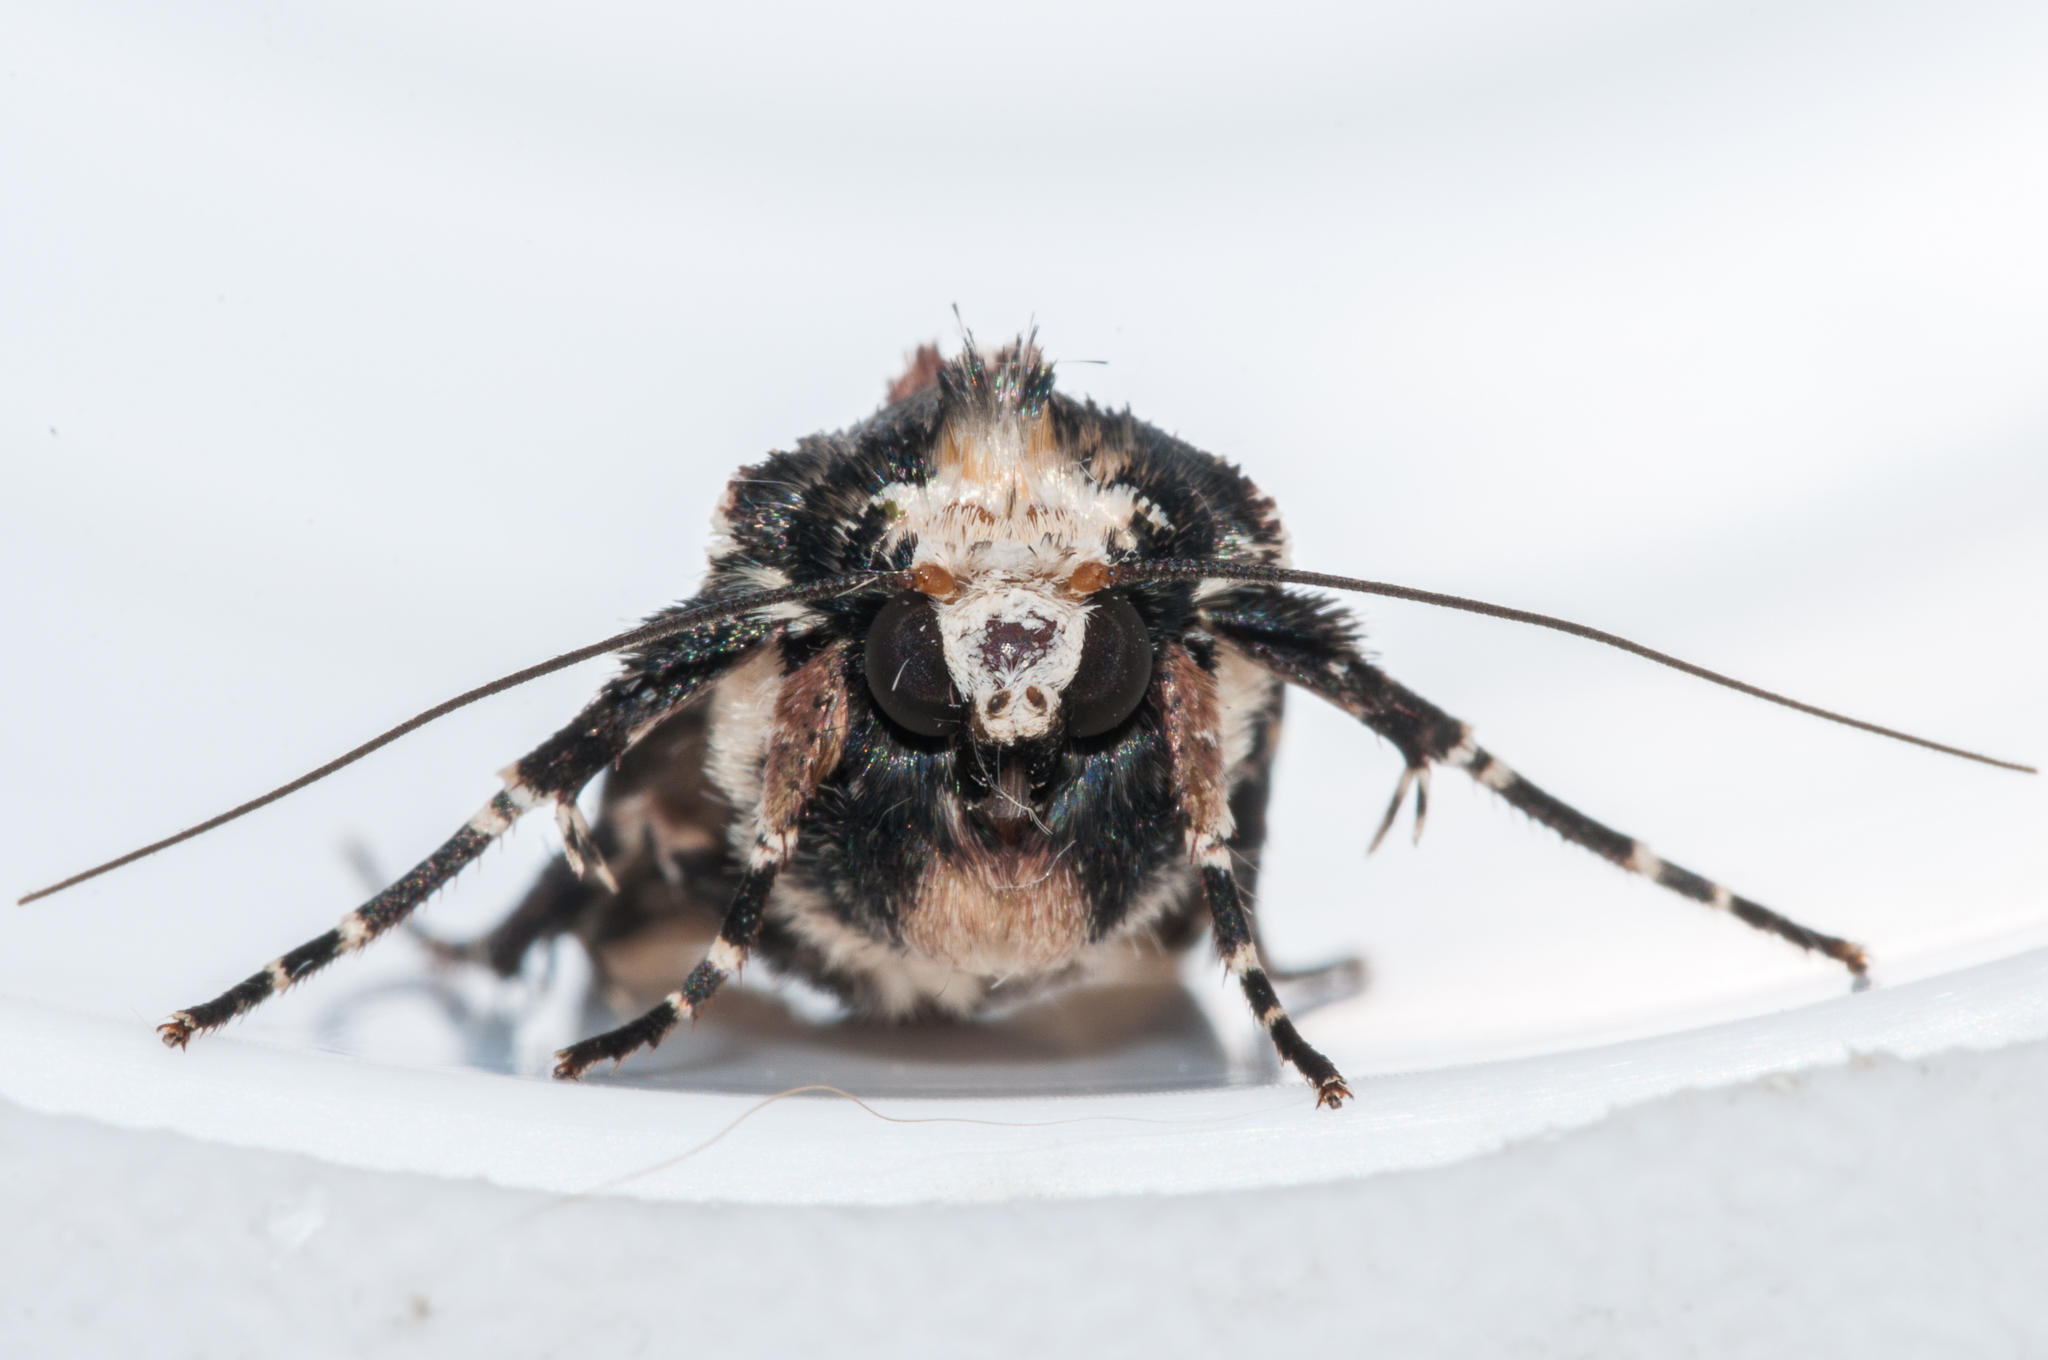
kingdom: Animalia
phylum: Arthropoda
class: Insecta
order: Lepidoptera
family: Noctuidae
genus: Mentaxya
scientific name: Mentaxya albifrons
